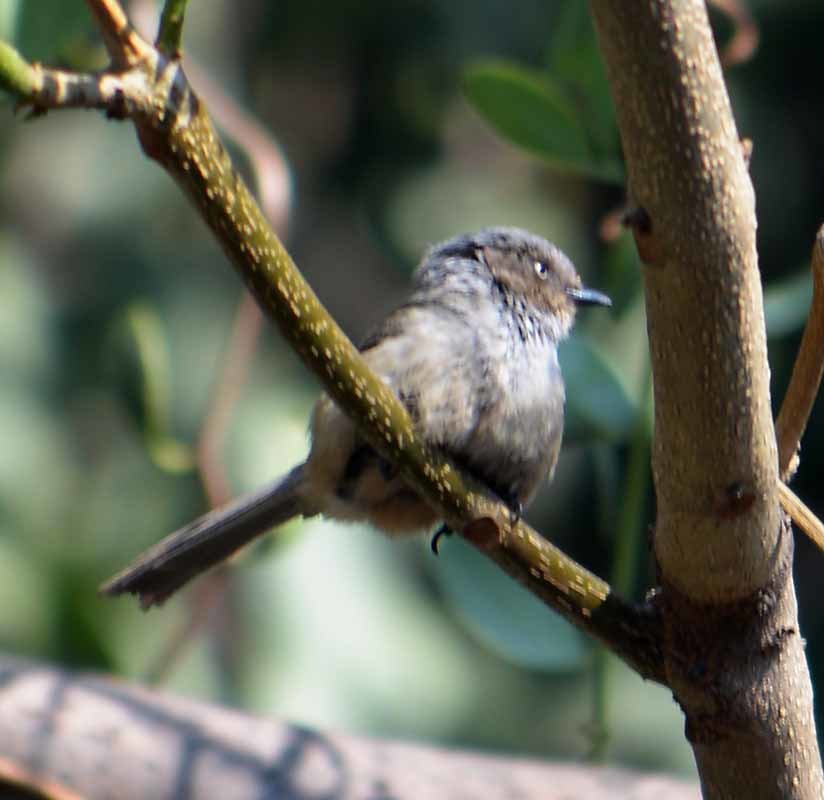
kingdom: Animalia
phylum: Chordata
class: Aves
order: Passeriformes
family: Aegithalidae
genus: Psaltriparus
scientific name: Psaltriparus minimus
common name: American bushtit
